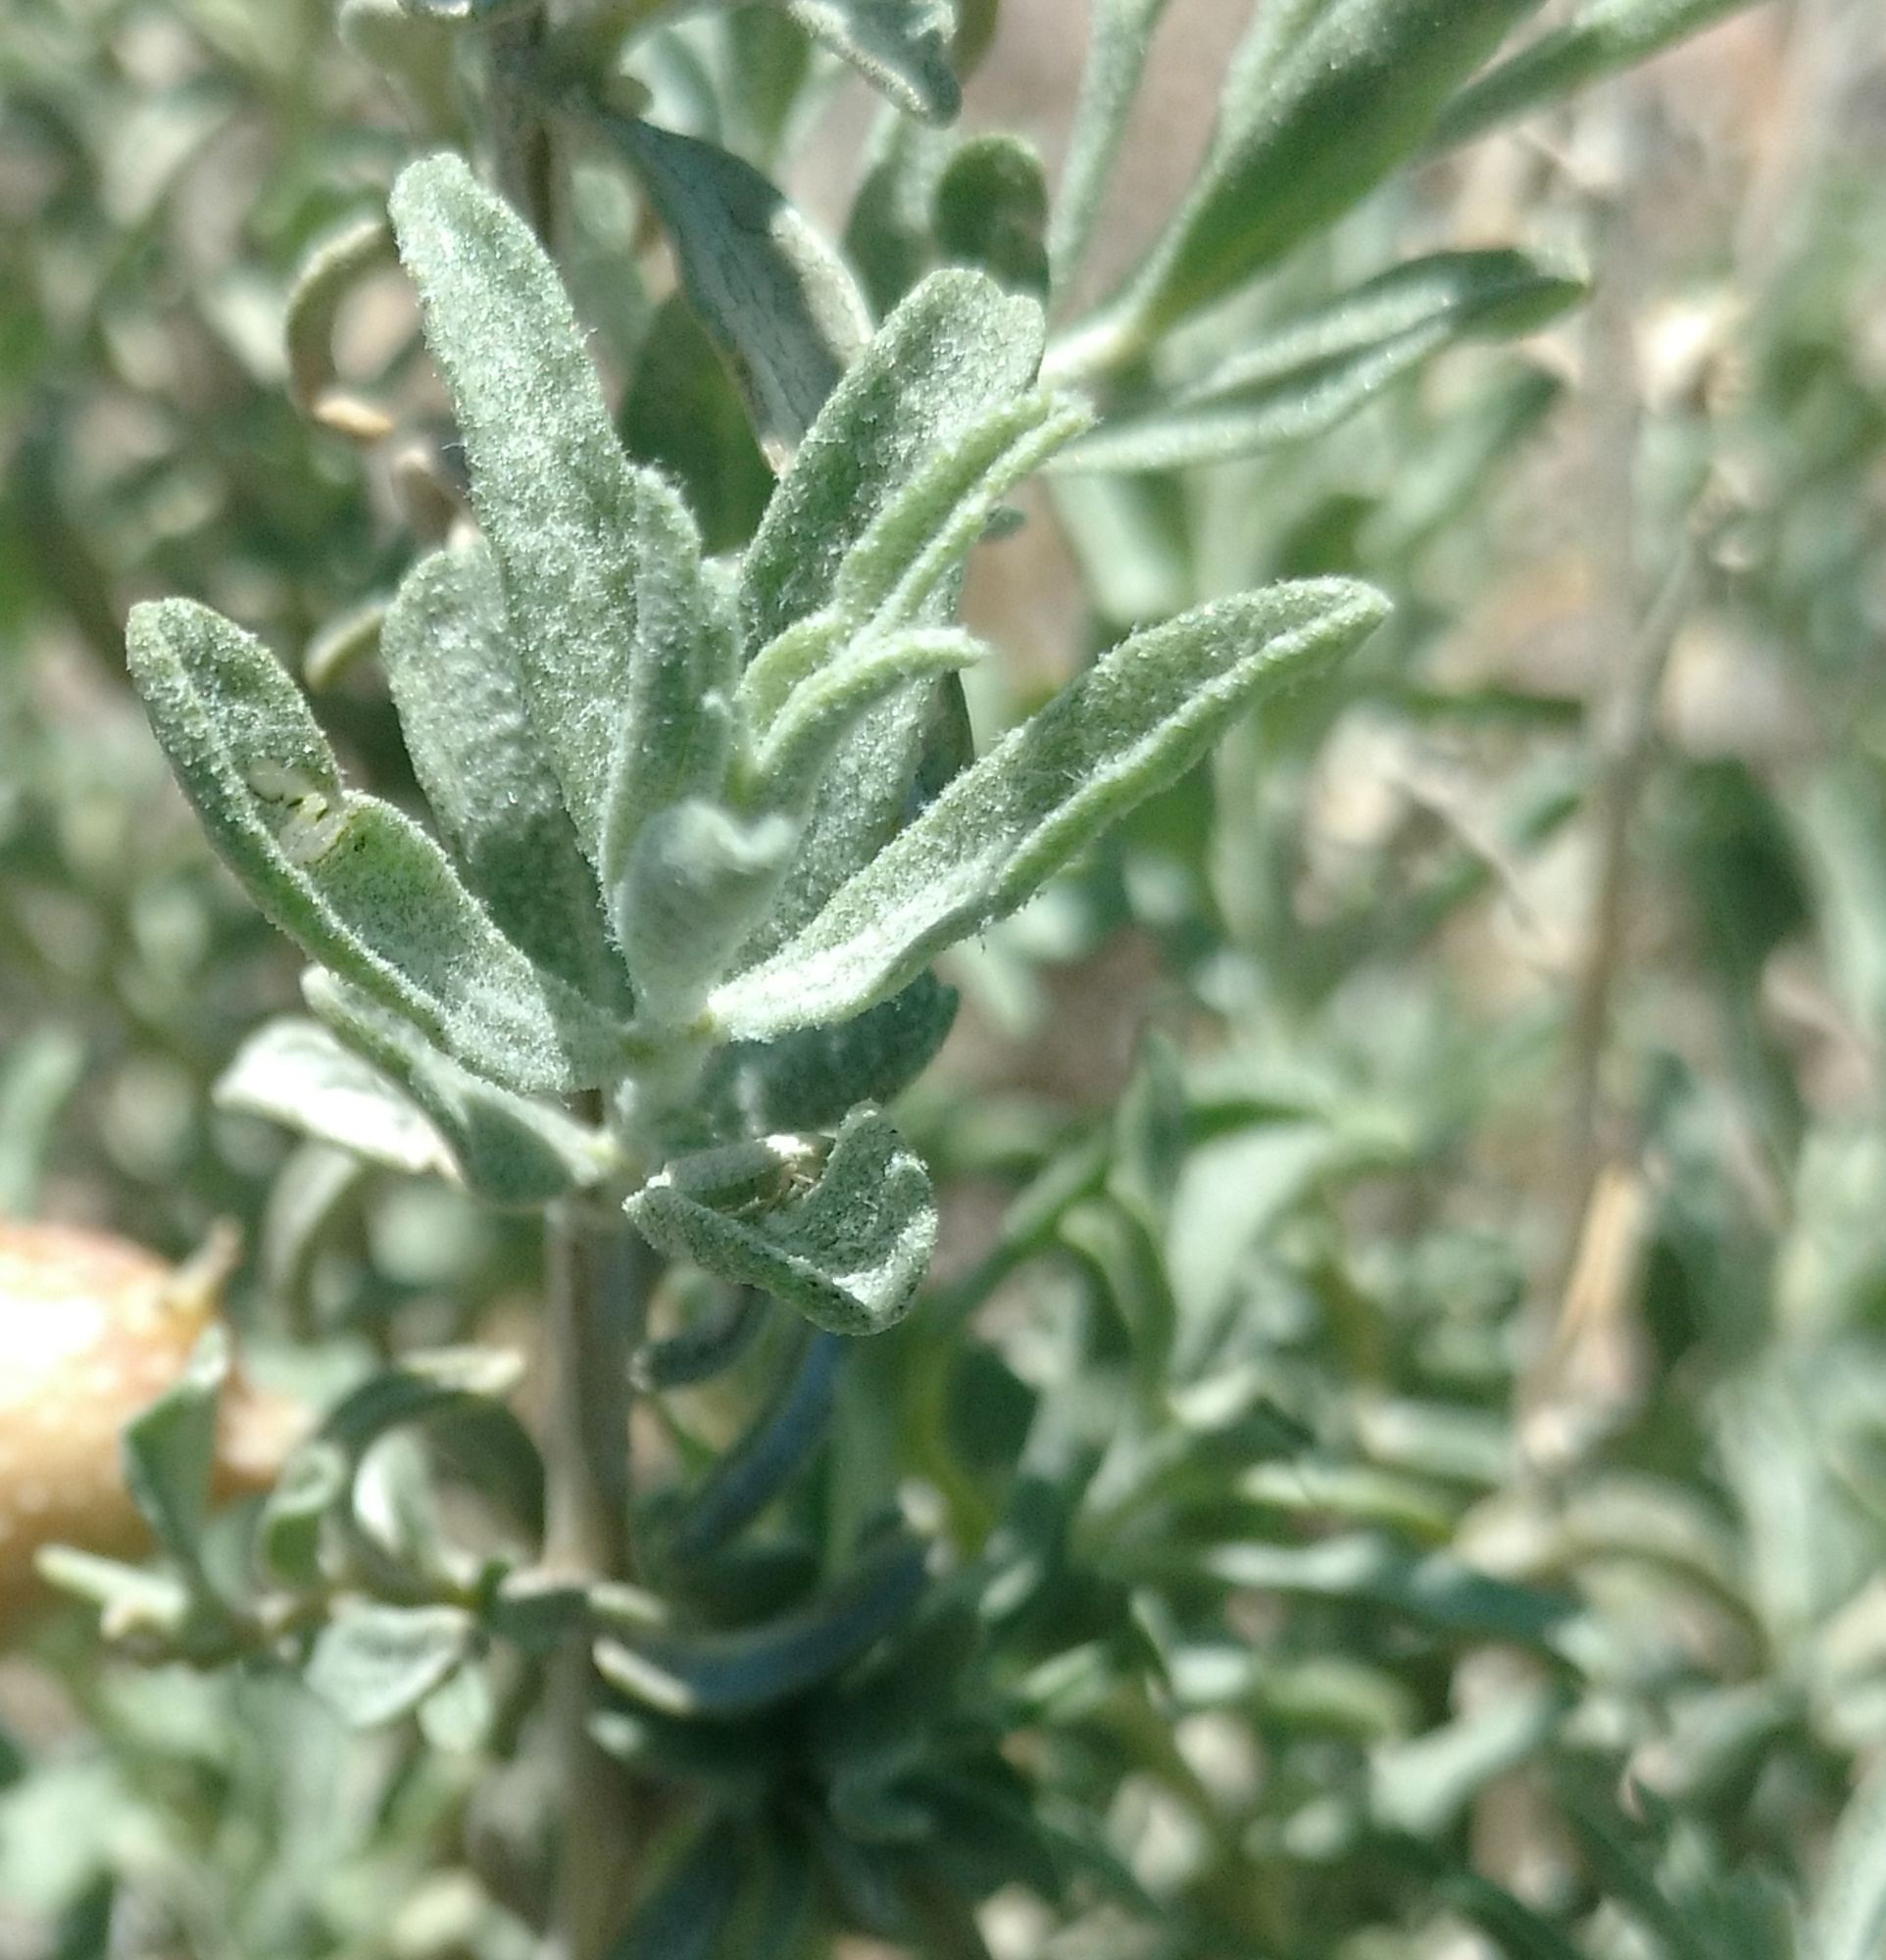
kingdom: Plantae
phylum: Tracheophyta
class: Magnoliopsida
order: Caryophyllales
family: Amaranthaceae
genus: Atriplex
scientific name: Atriplex canescens
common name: Four-wing saltbush
